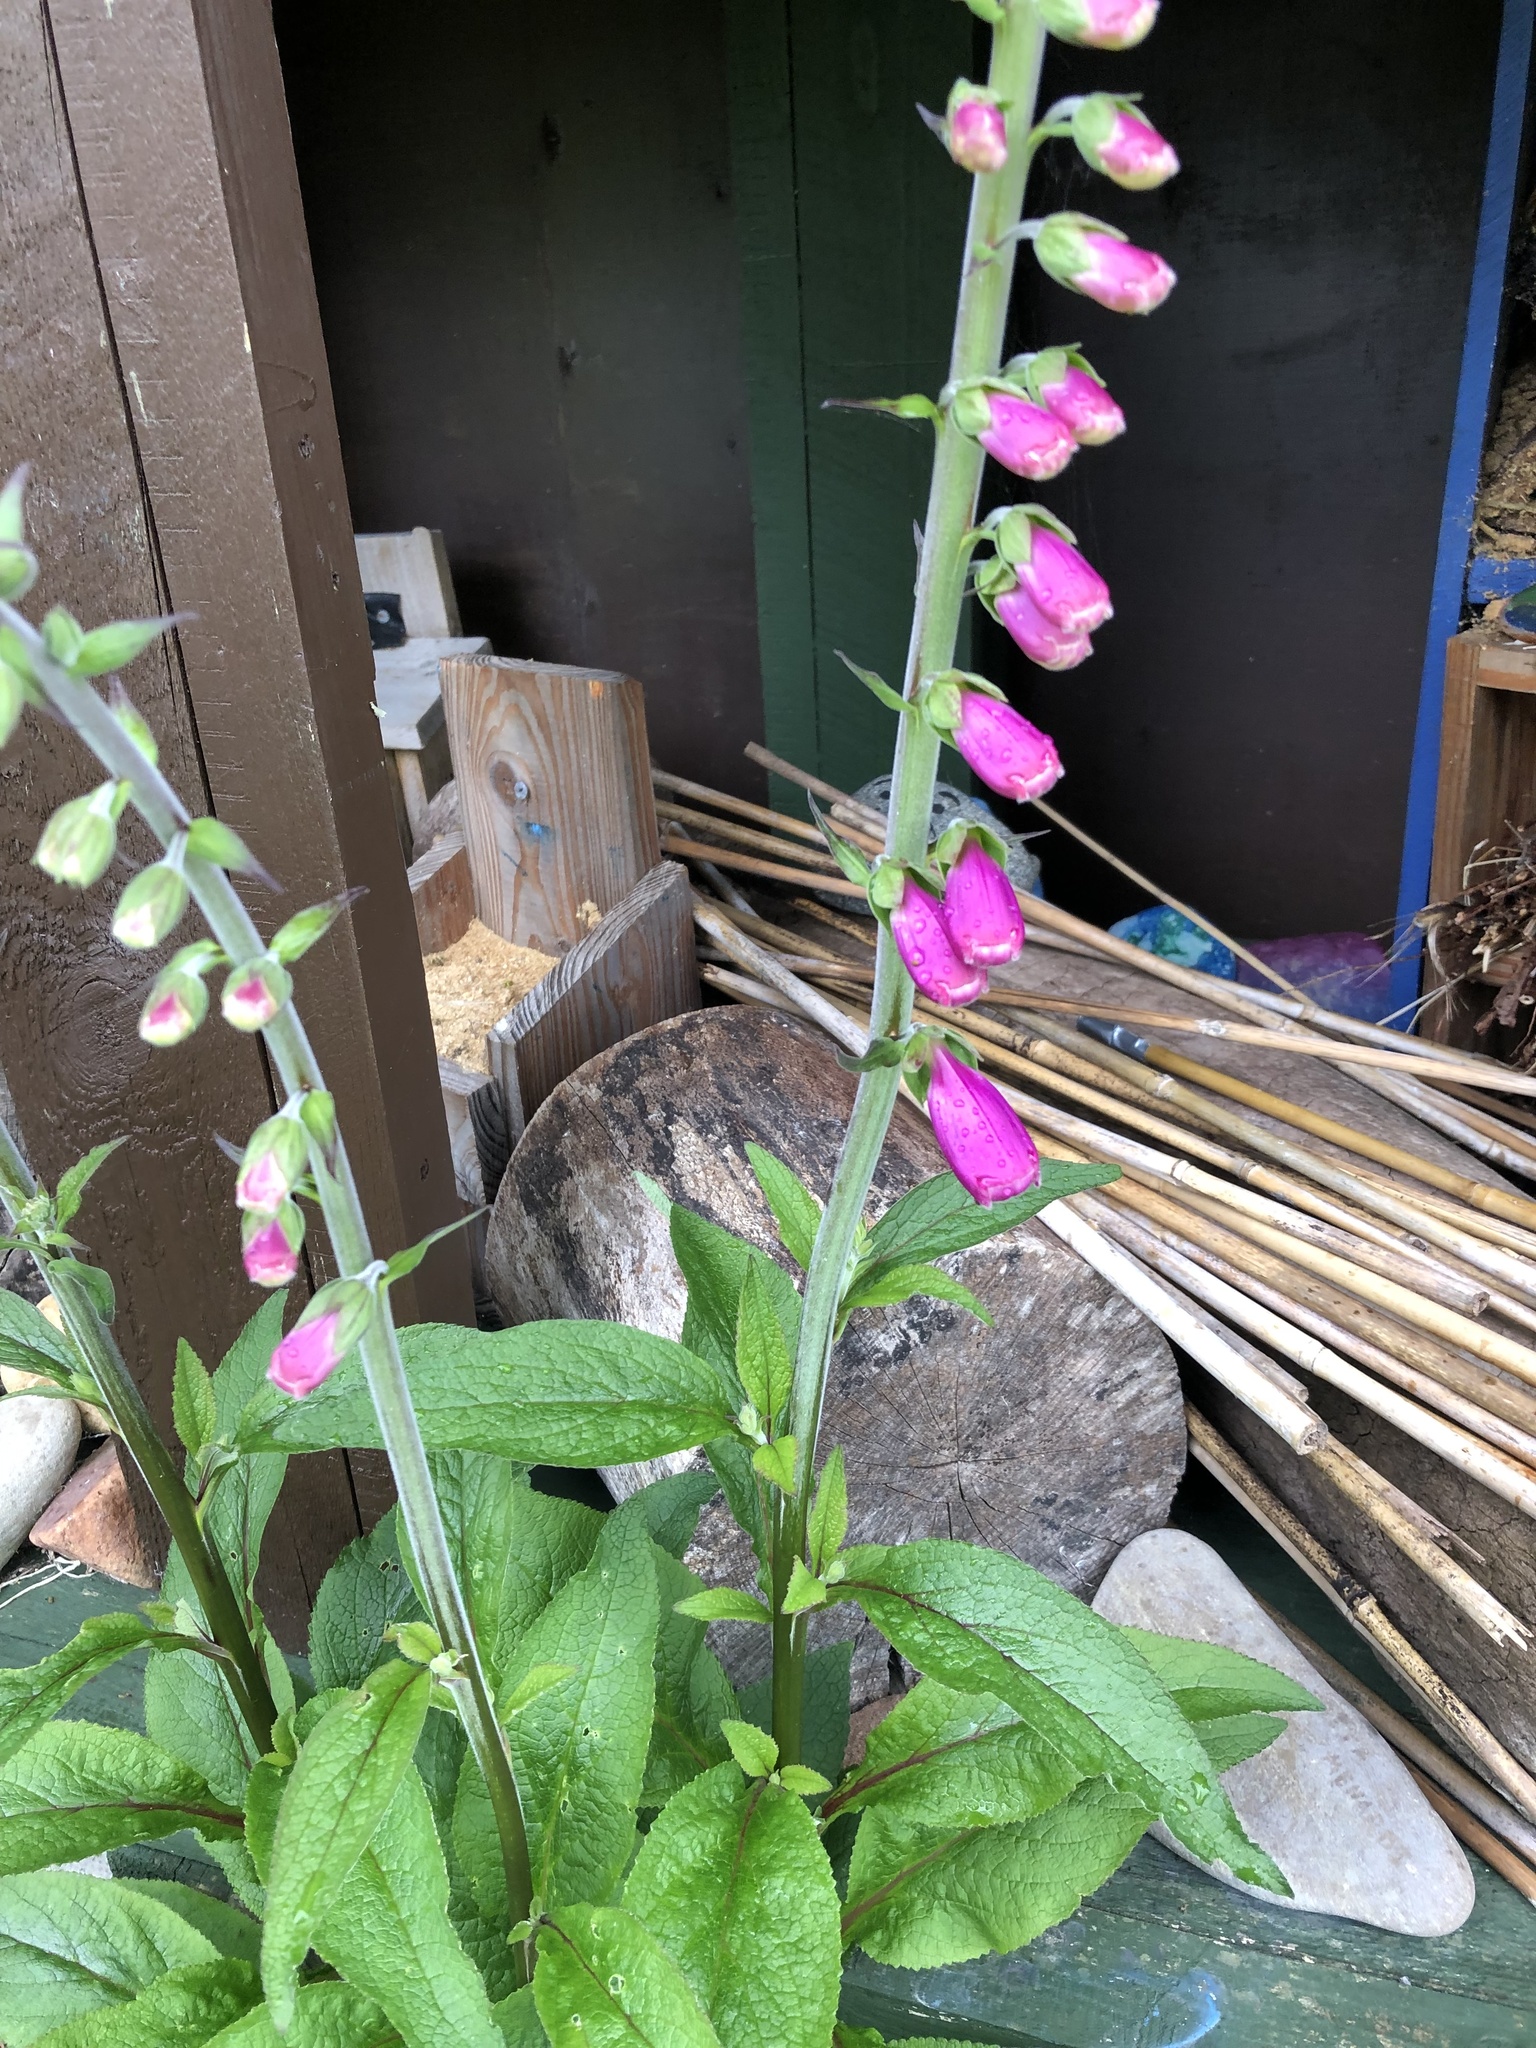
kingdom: Plantae
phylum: Tracheophyta
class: Magnoliopsida
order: Lamiales
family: Plantaginaceae
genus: Digitalis
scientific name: Digitalis purpurea
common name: Foxglove
